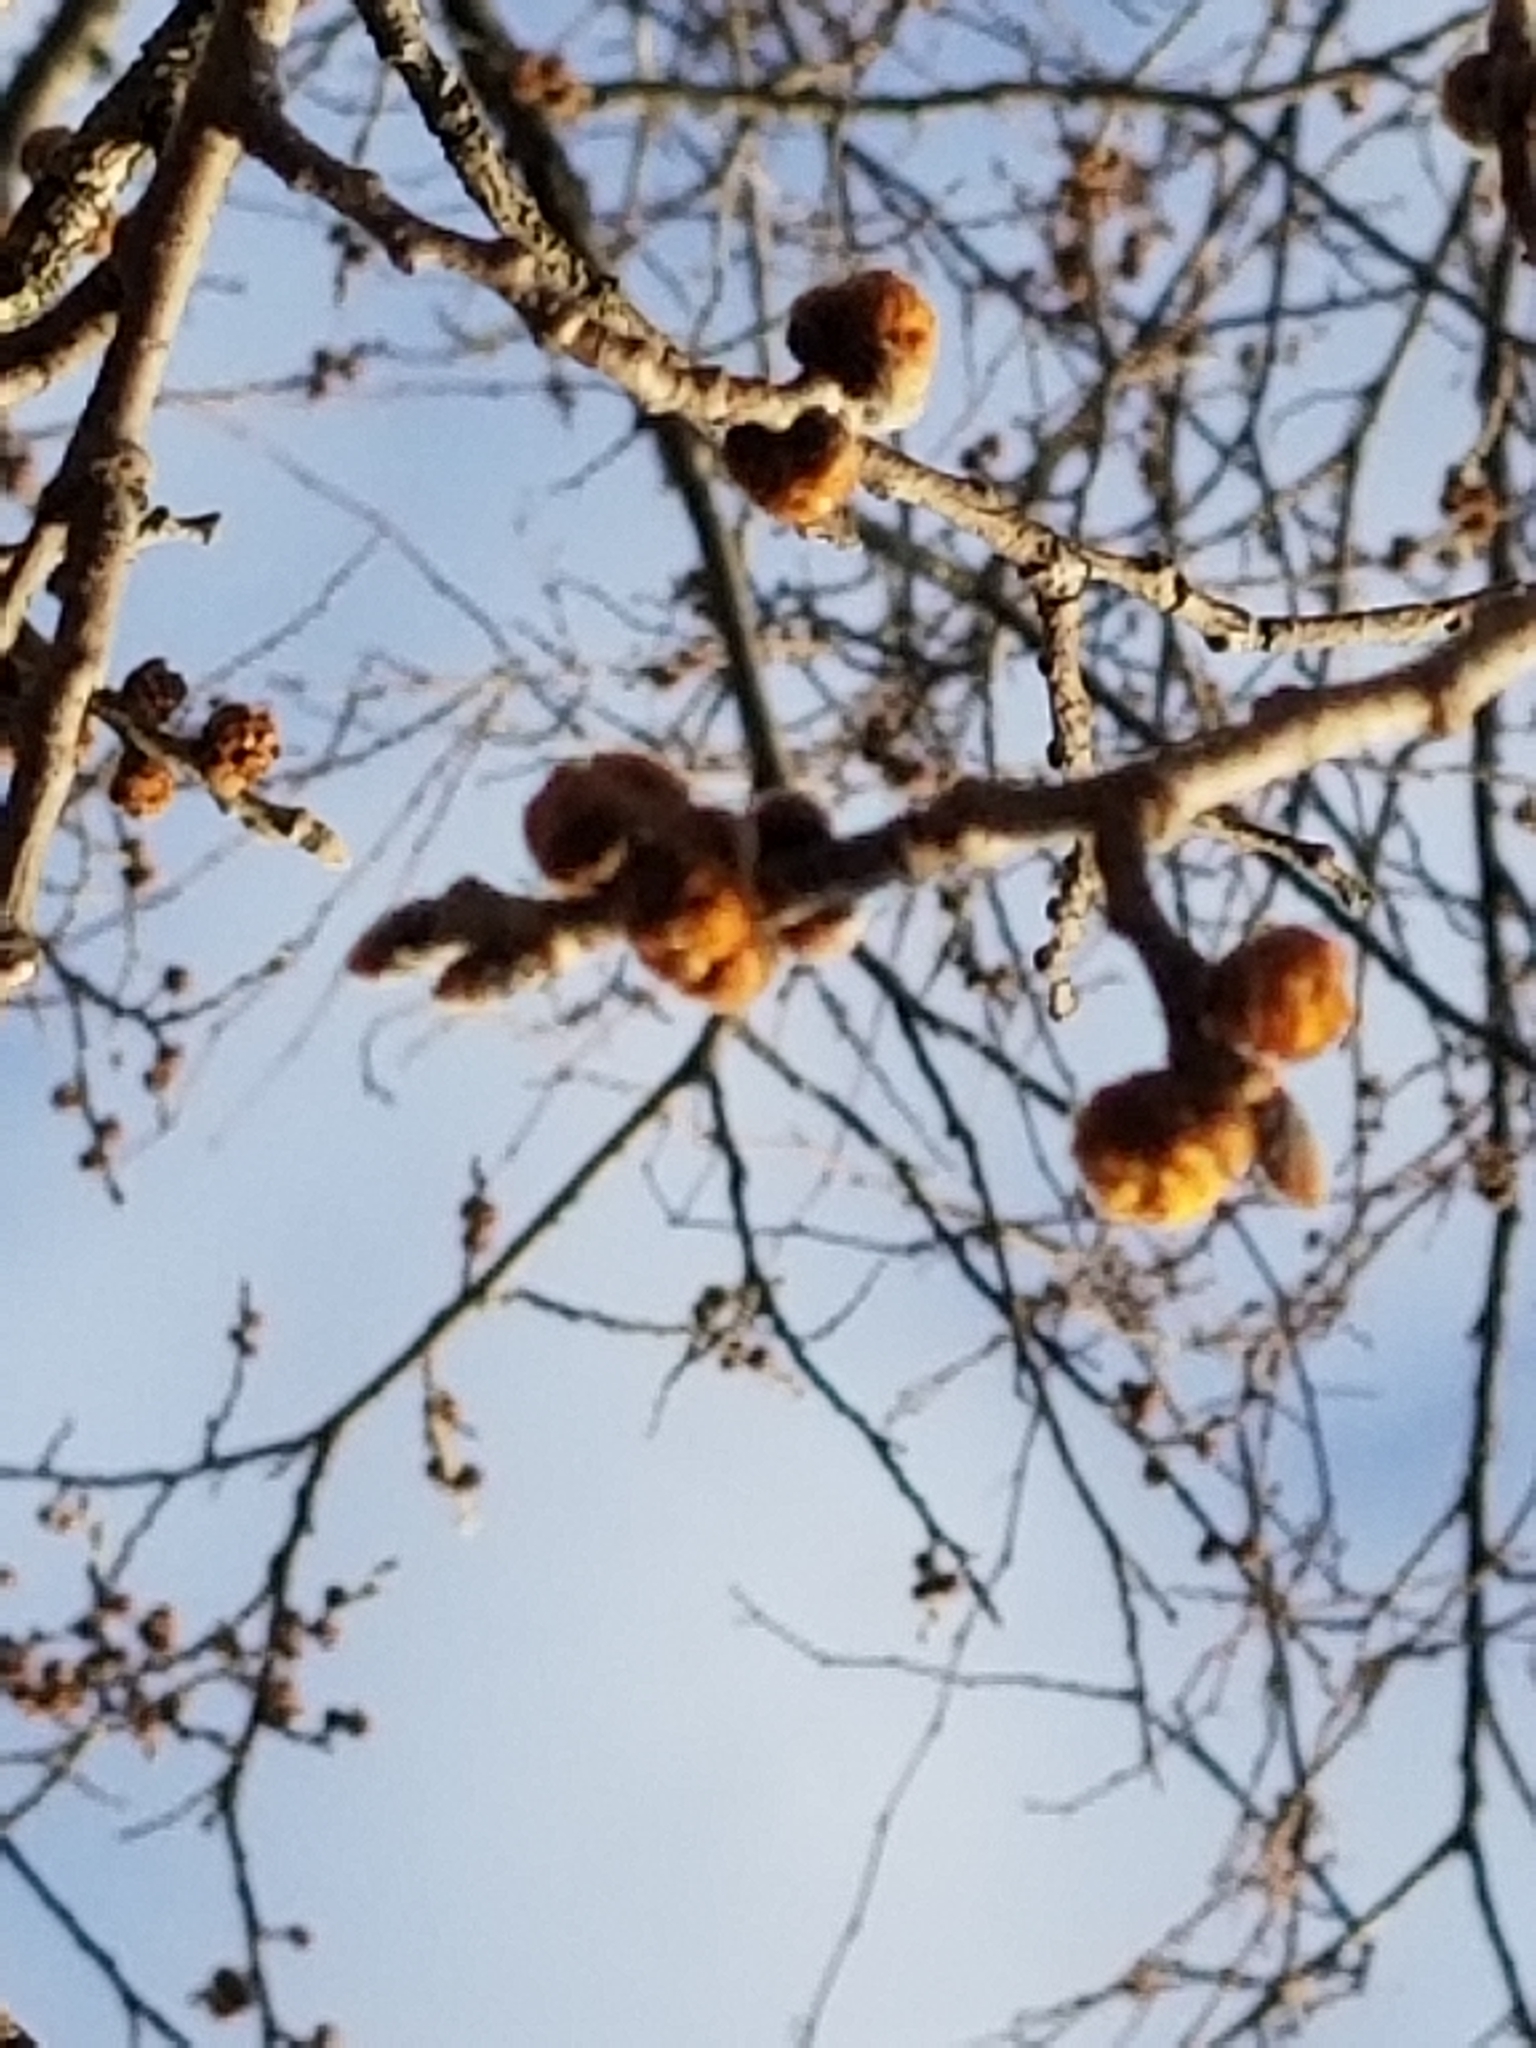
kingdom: Plantae
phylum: Tracheophyta
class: Magnoliopsida
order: Rosales
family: Ulmaceae
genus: Ulmus
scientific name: Ulmus rubra
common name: Slippery elm
